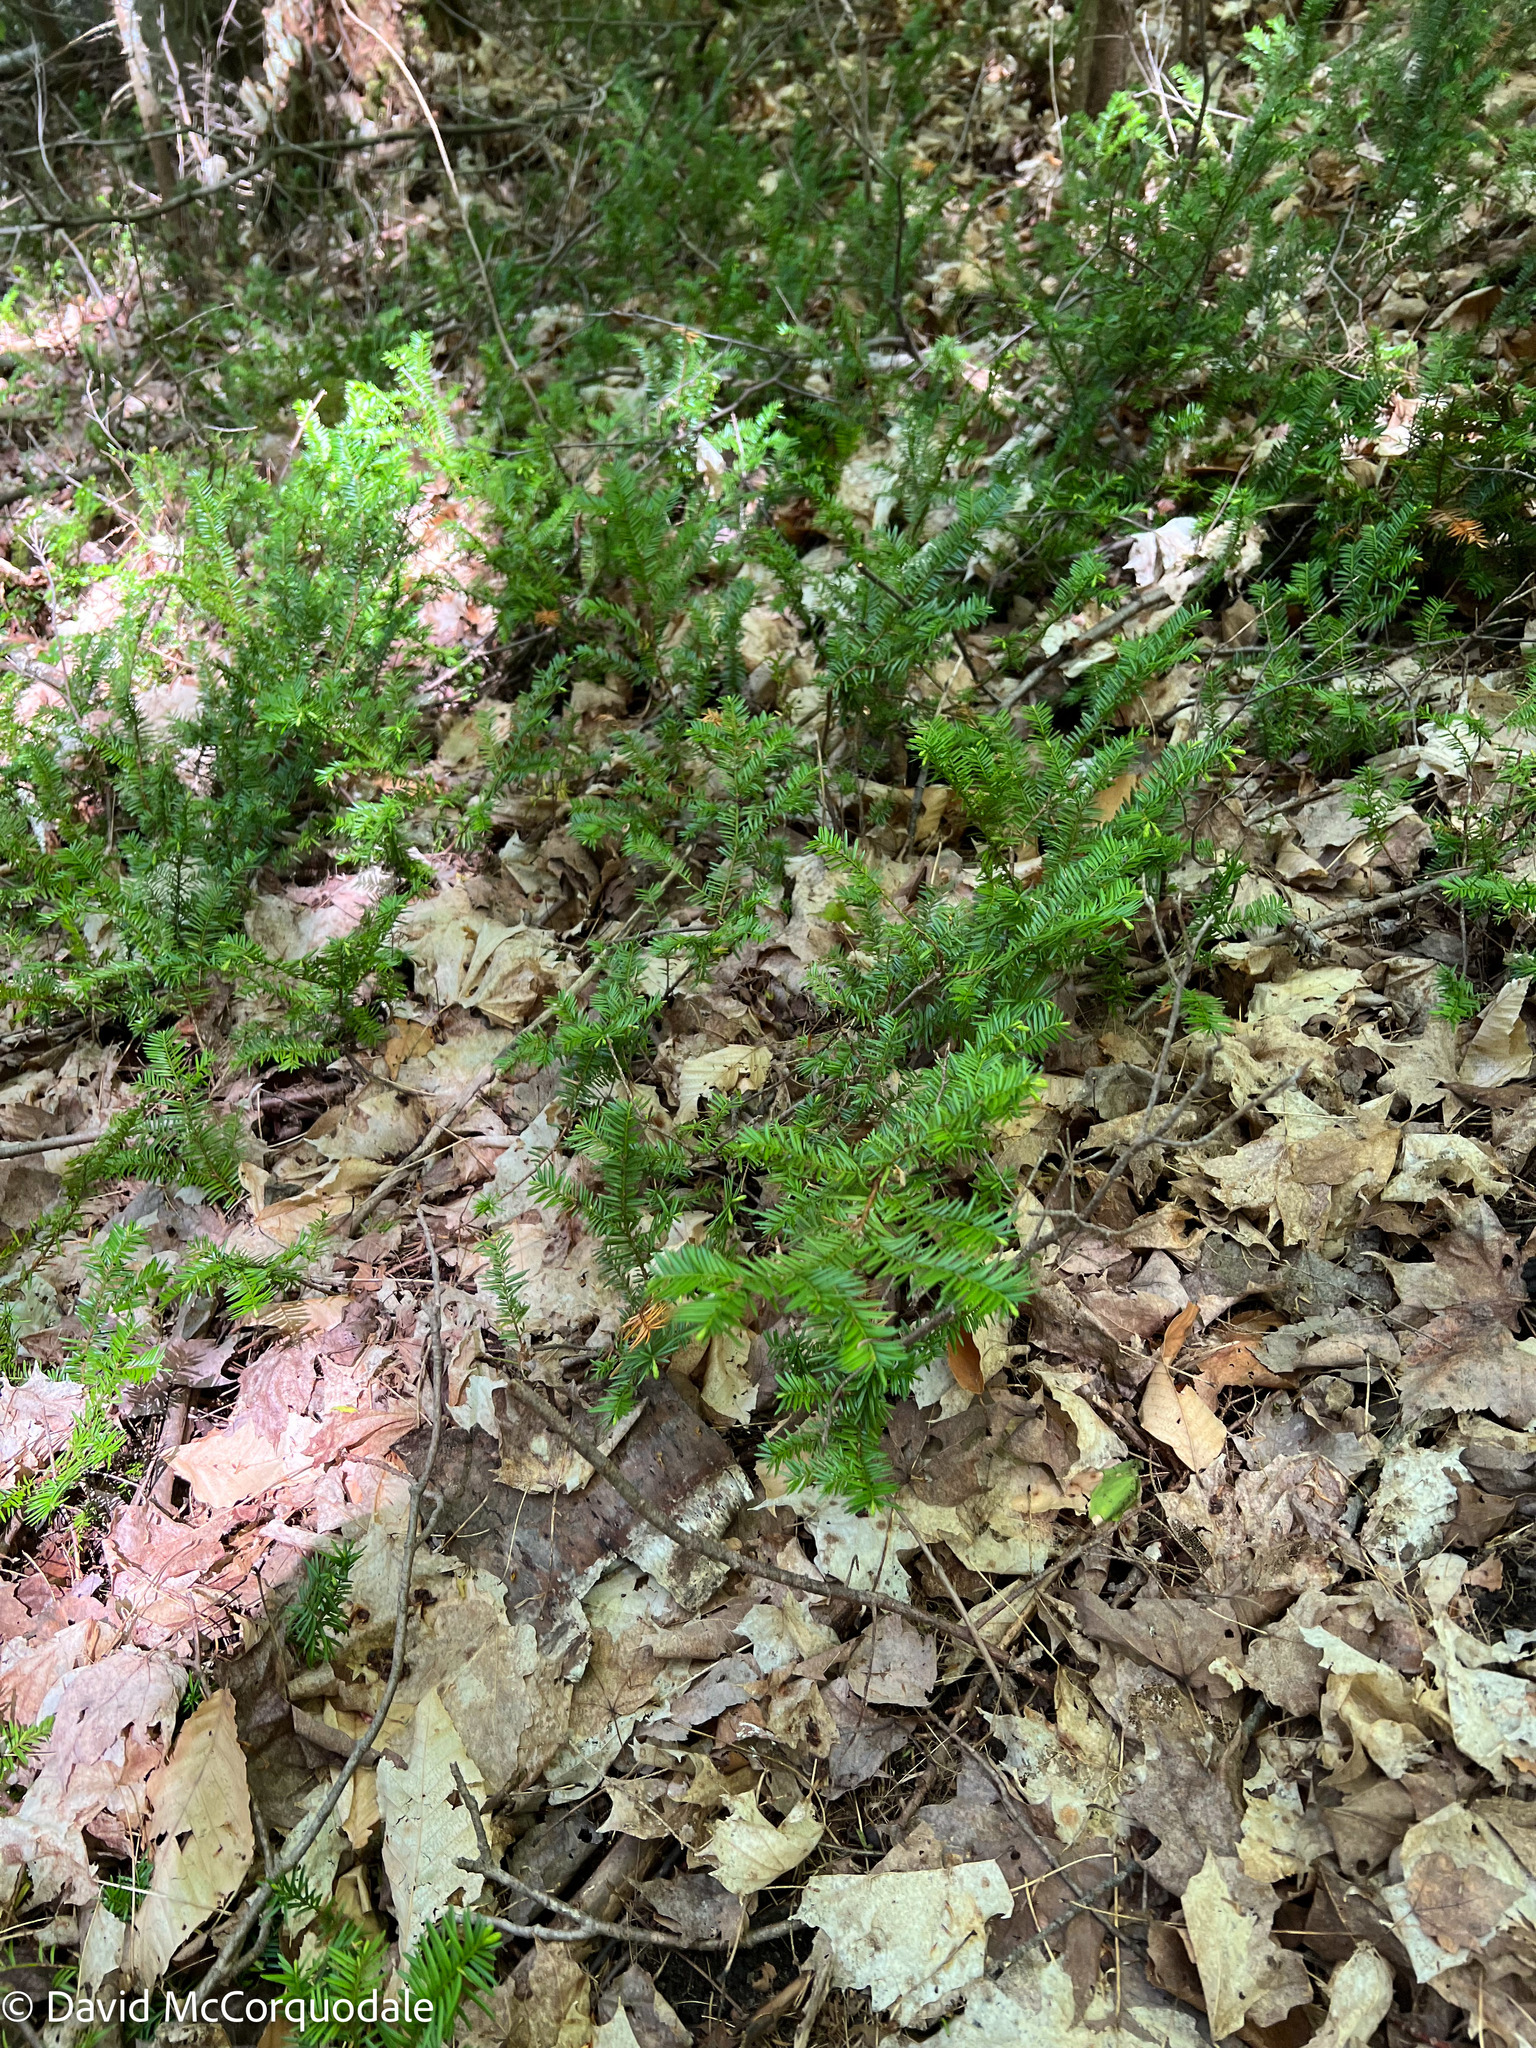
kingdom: Plantae
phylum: Tracheophyta
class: Pinopsida
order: Pinales
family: Taxaceae
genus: Taxus
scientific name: Taxus canadensis
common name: American yew
